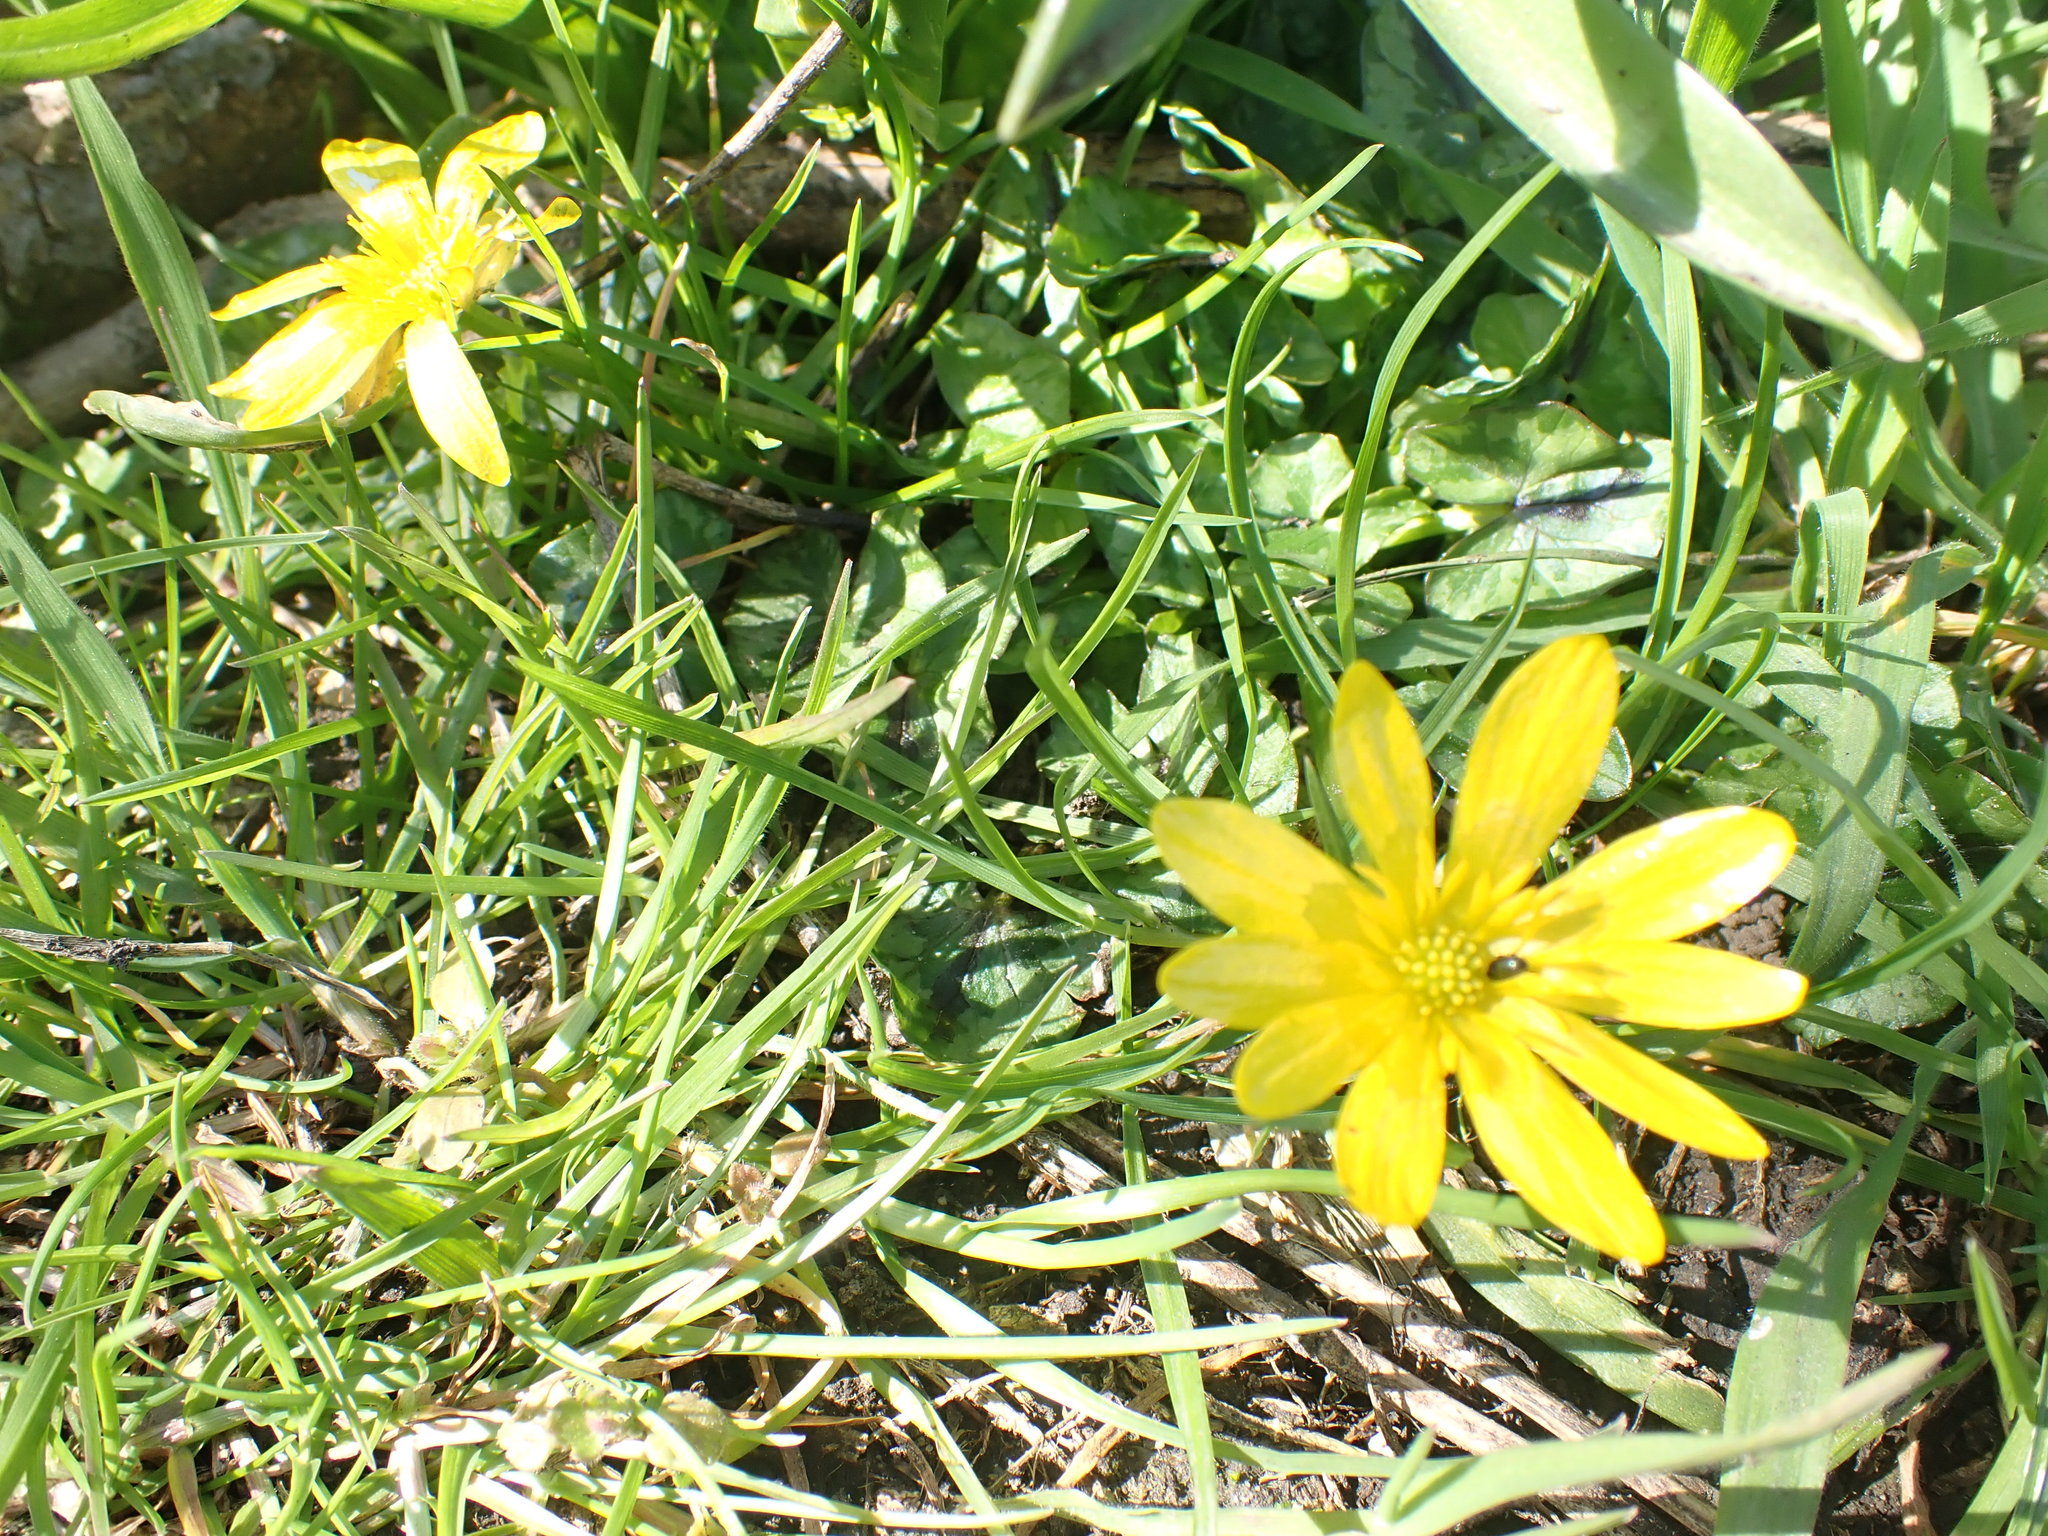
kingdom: Plantae
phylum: Tracheophyta
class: Magnoliopsida
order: Ranunculales
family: Ranunculaceae
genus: Ficaria
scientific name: Ficaria verna
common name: Lesser celandine
